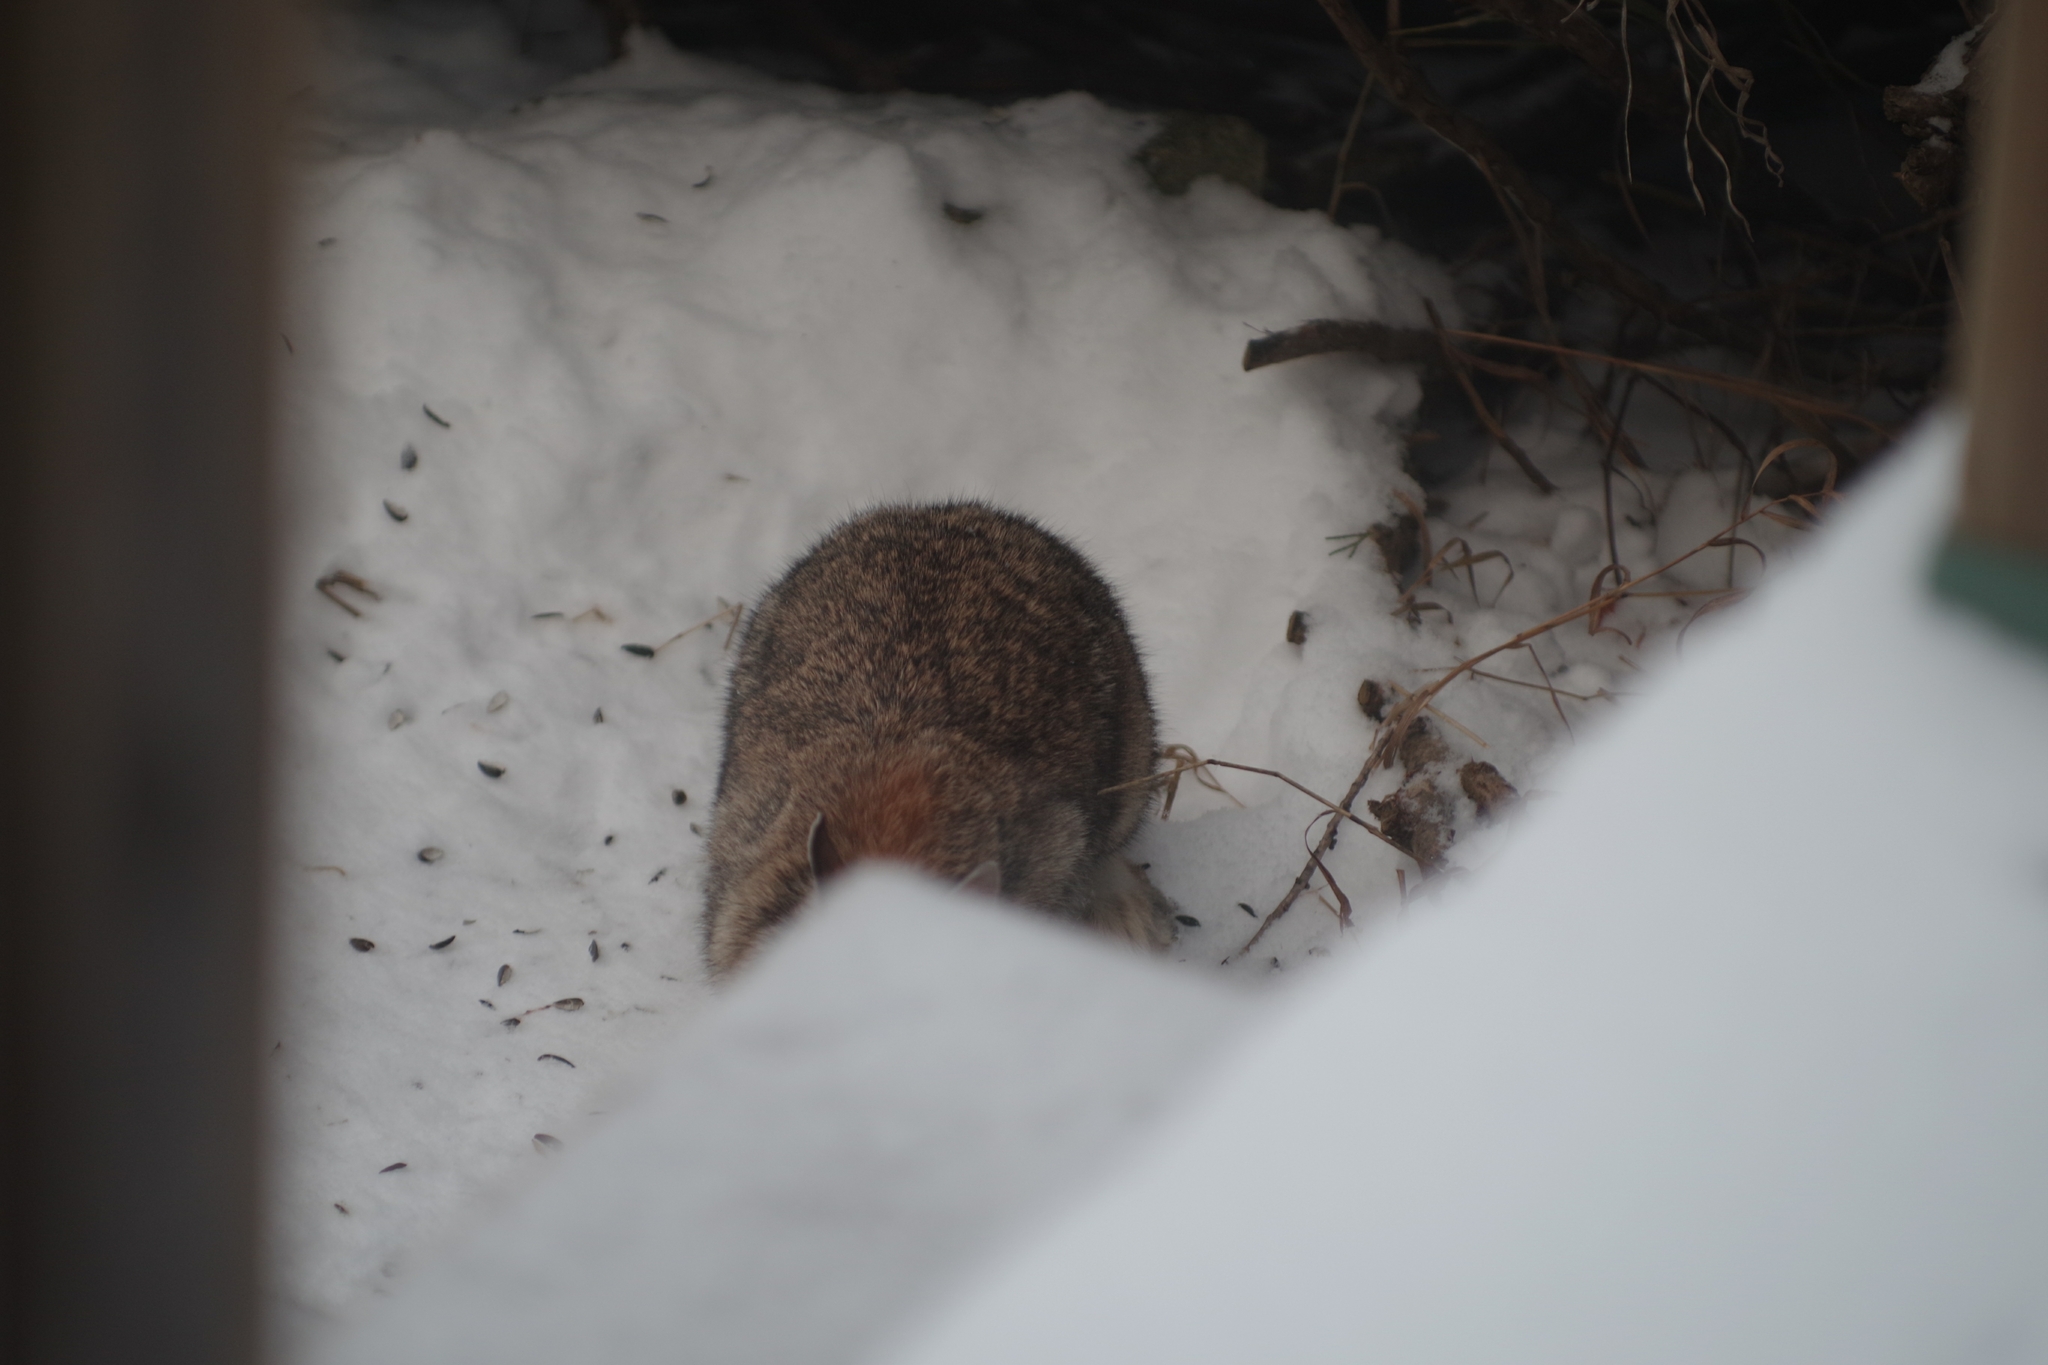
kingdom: Animalia
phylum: Chordata
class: Mammalia
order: Lagomorpha
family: Leporidae
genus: Sylvilagus
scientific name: Sylvilagus floridanus
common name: Eastern cottontail
